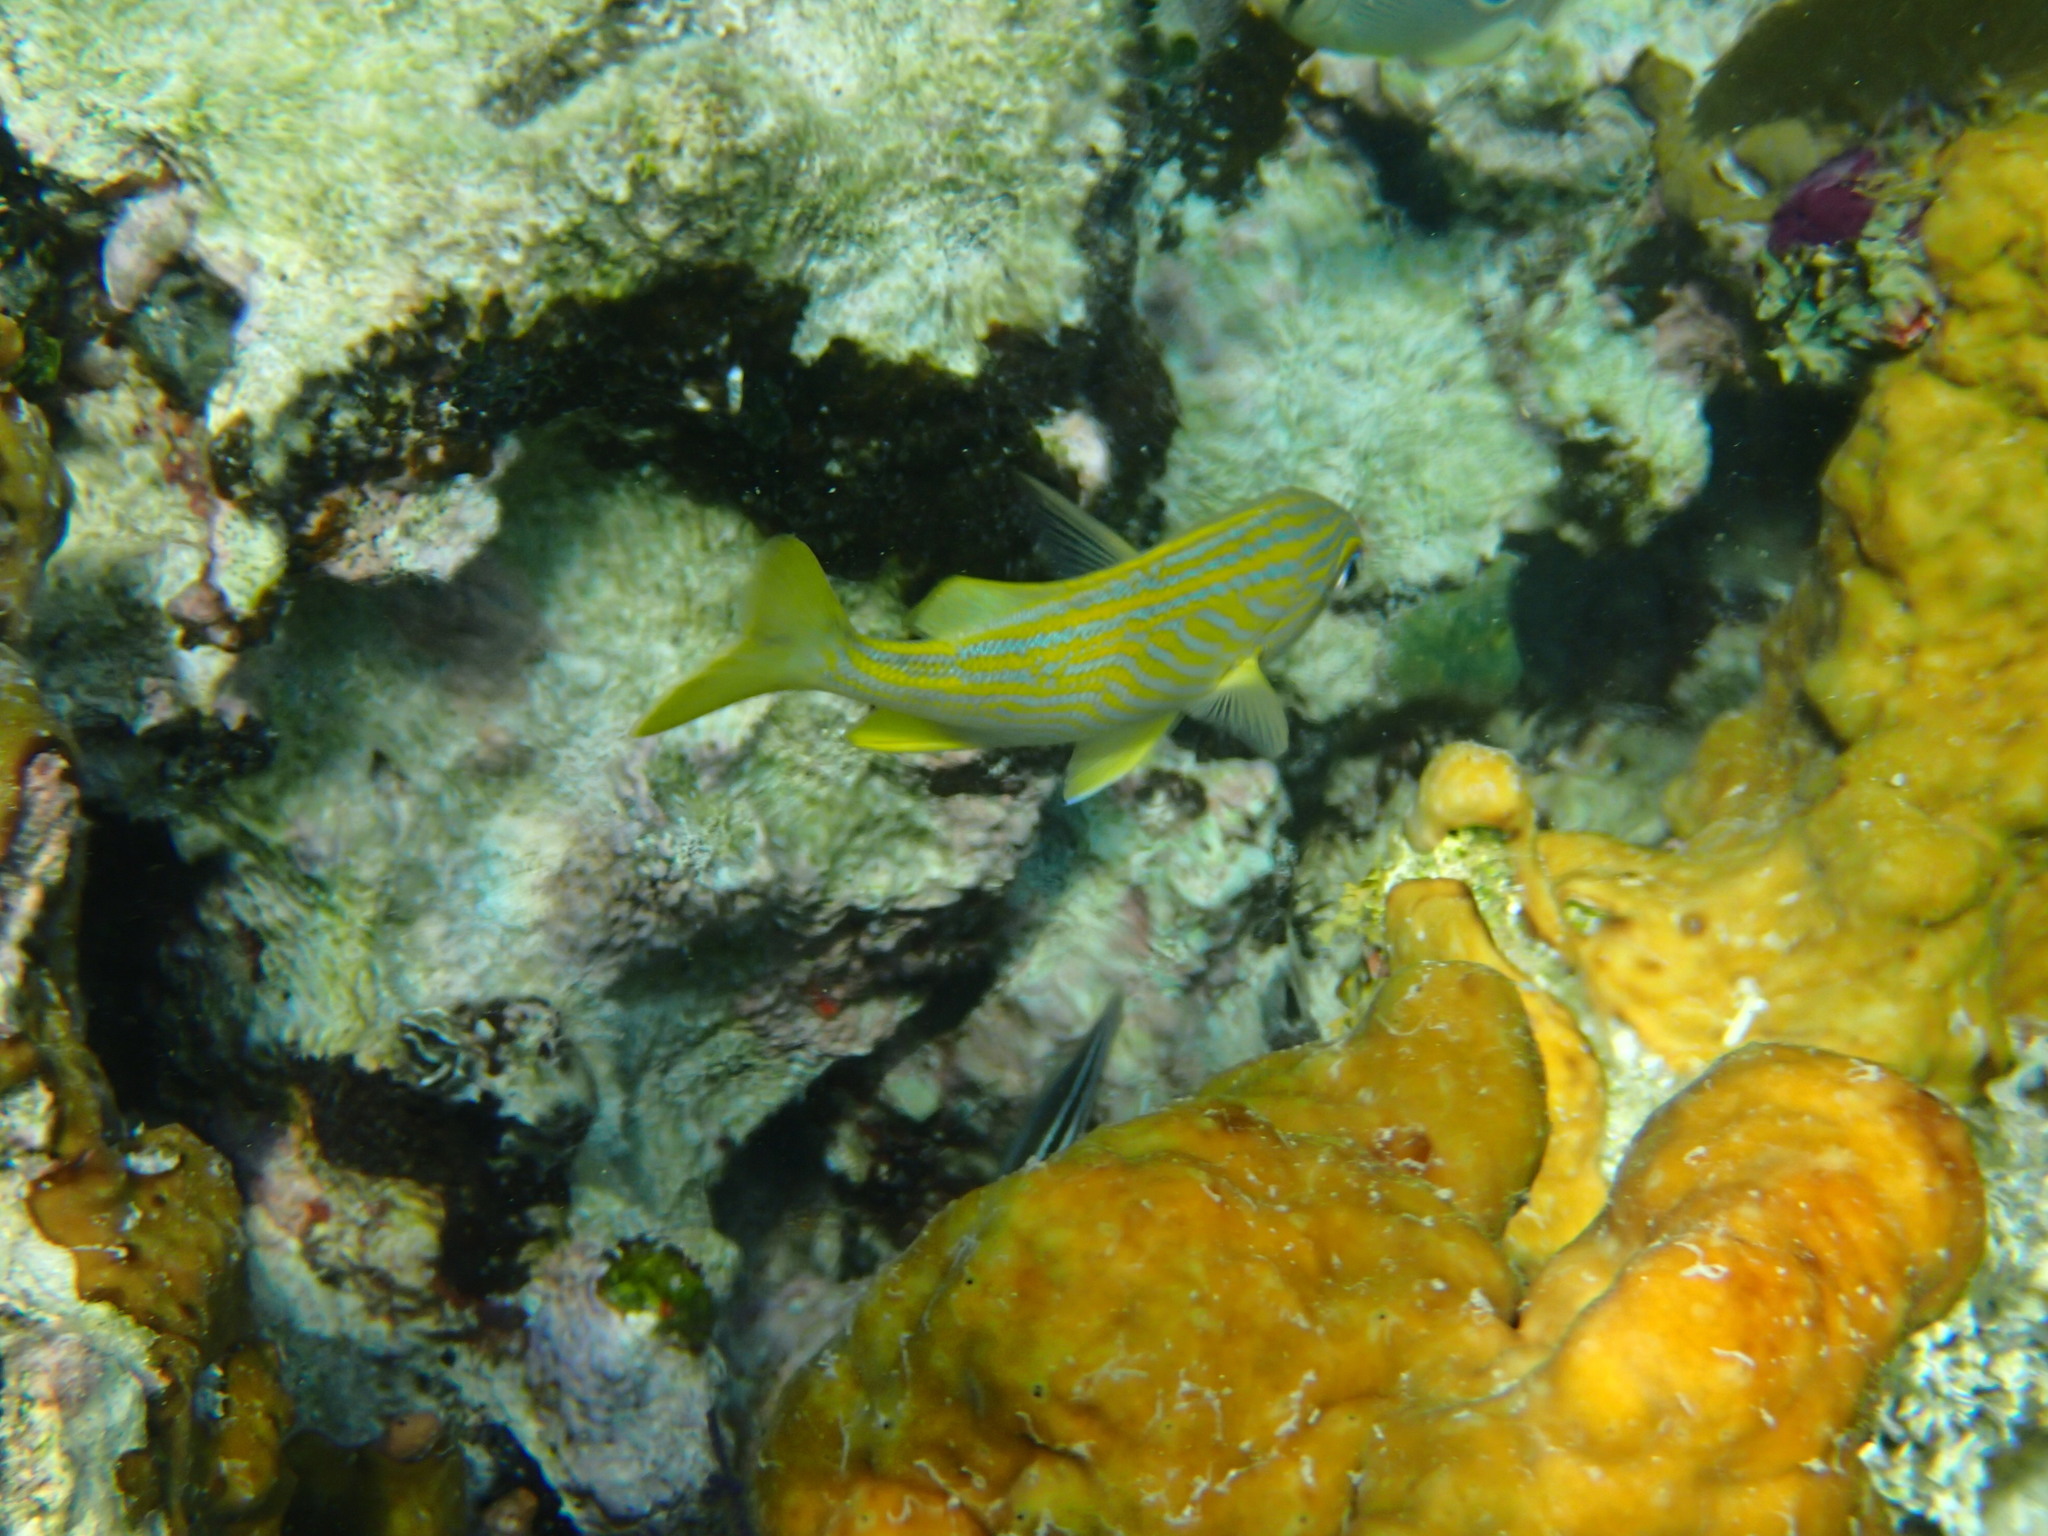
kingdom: Animalia
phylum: Chordata
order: Perciformes
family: Haemulidae
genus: Haemulon
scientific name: Haemulon flavolineatum
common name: French grunt
